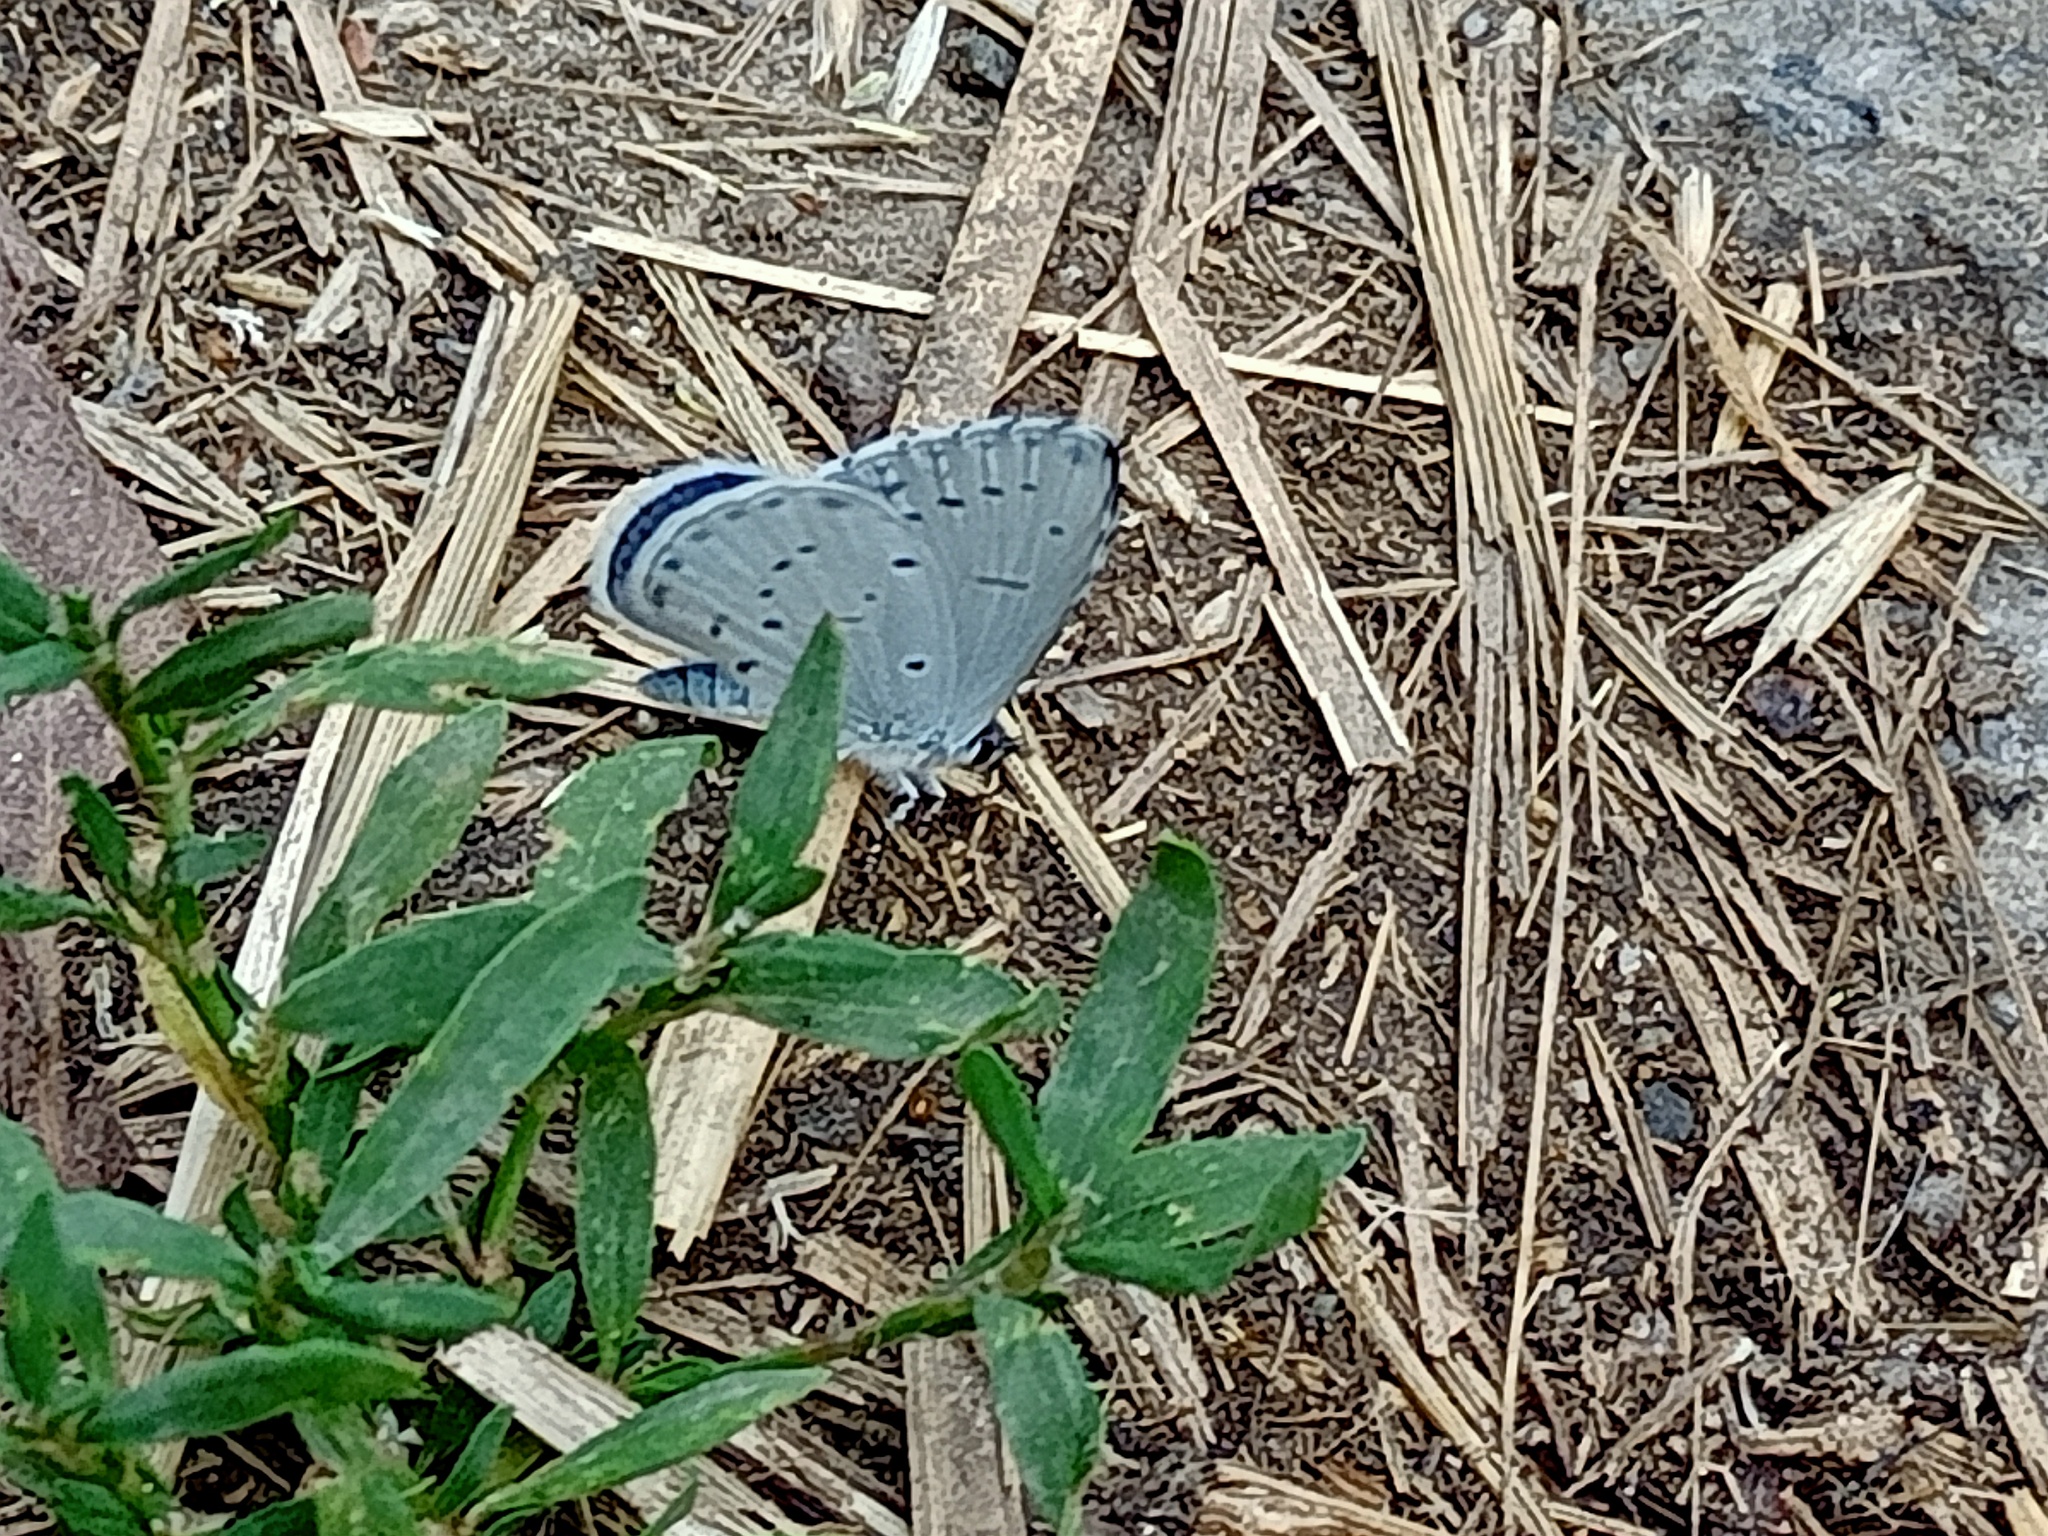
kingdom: Animalia
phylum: Arthropoda
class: Insecta
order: Lepidoptera
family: Lycaenidae
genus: Celastrina
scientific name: Celastrina argiolus
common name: Holly blue
